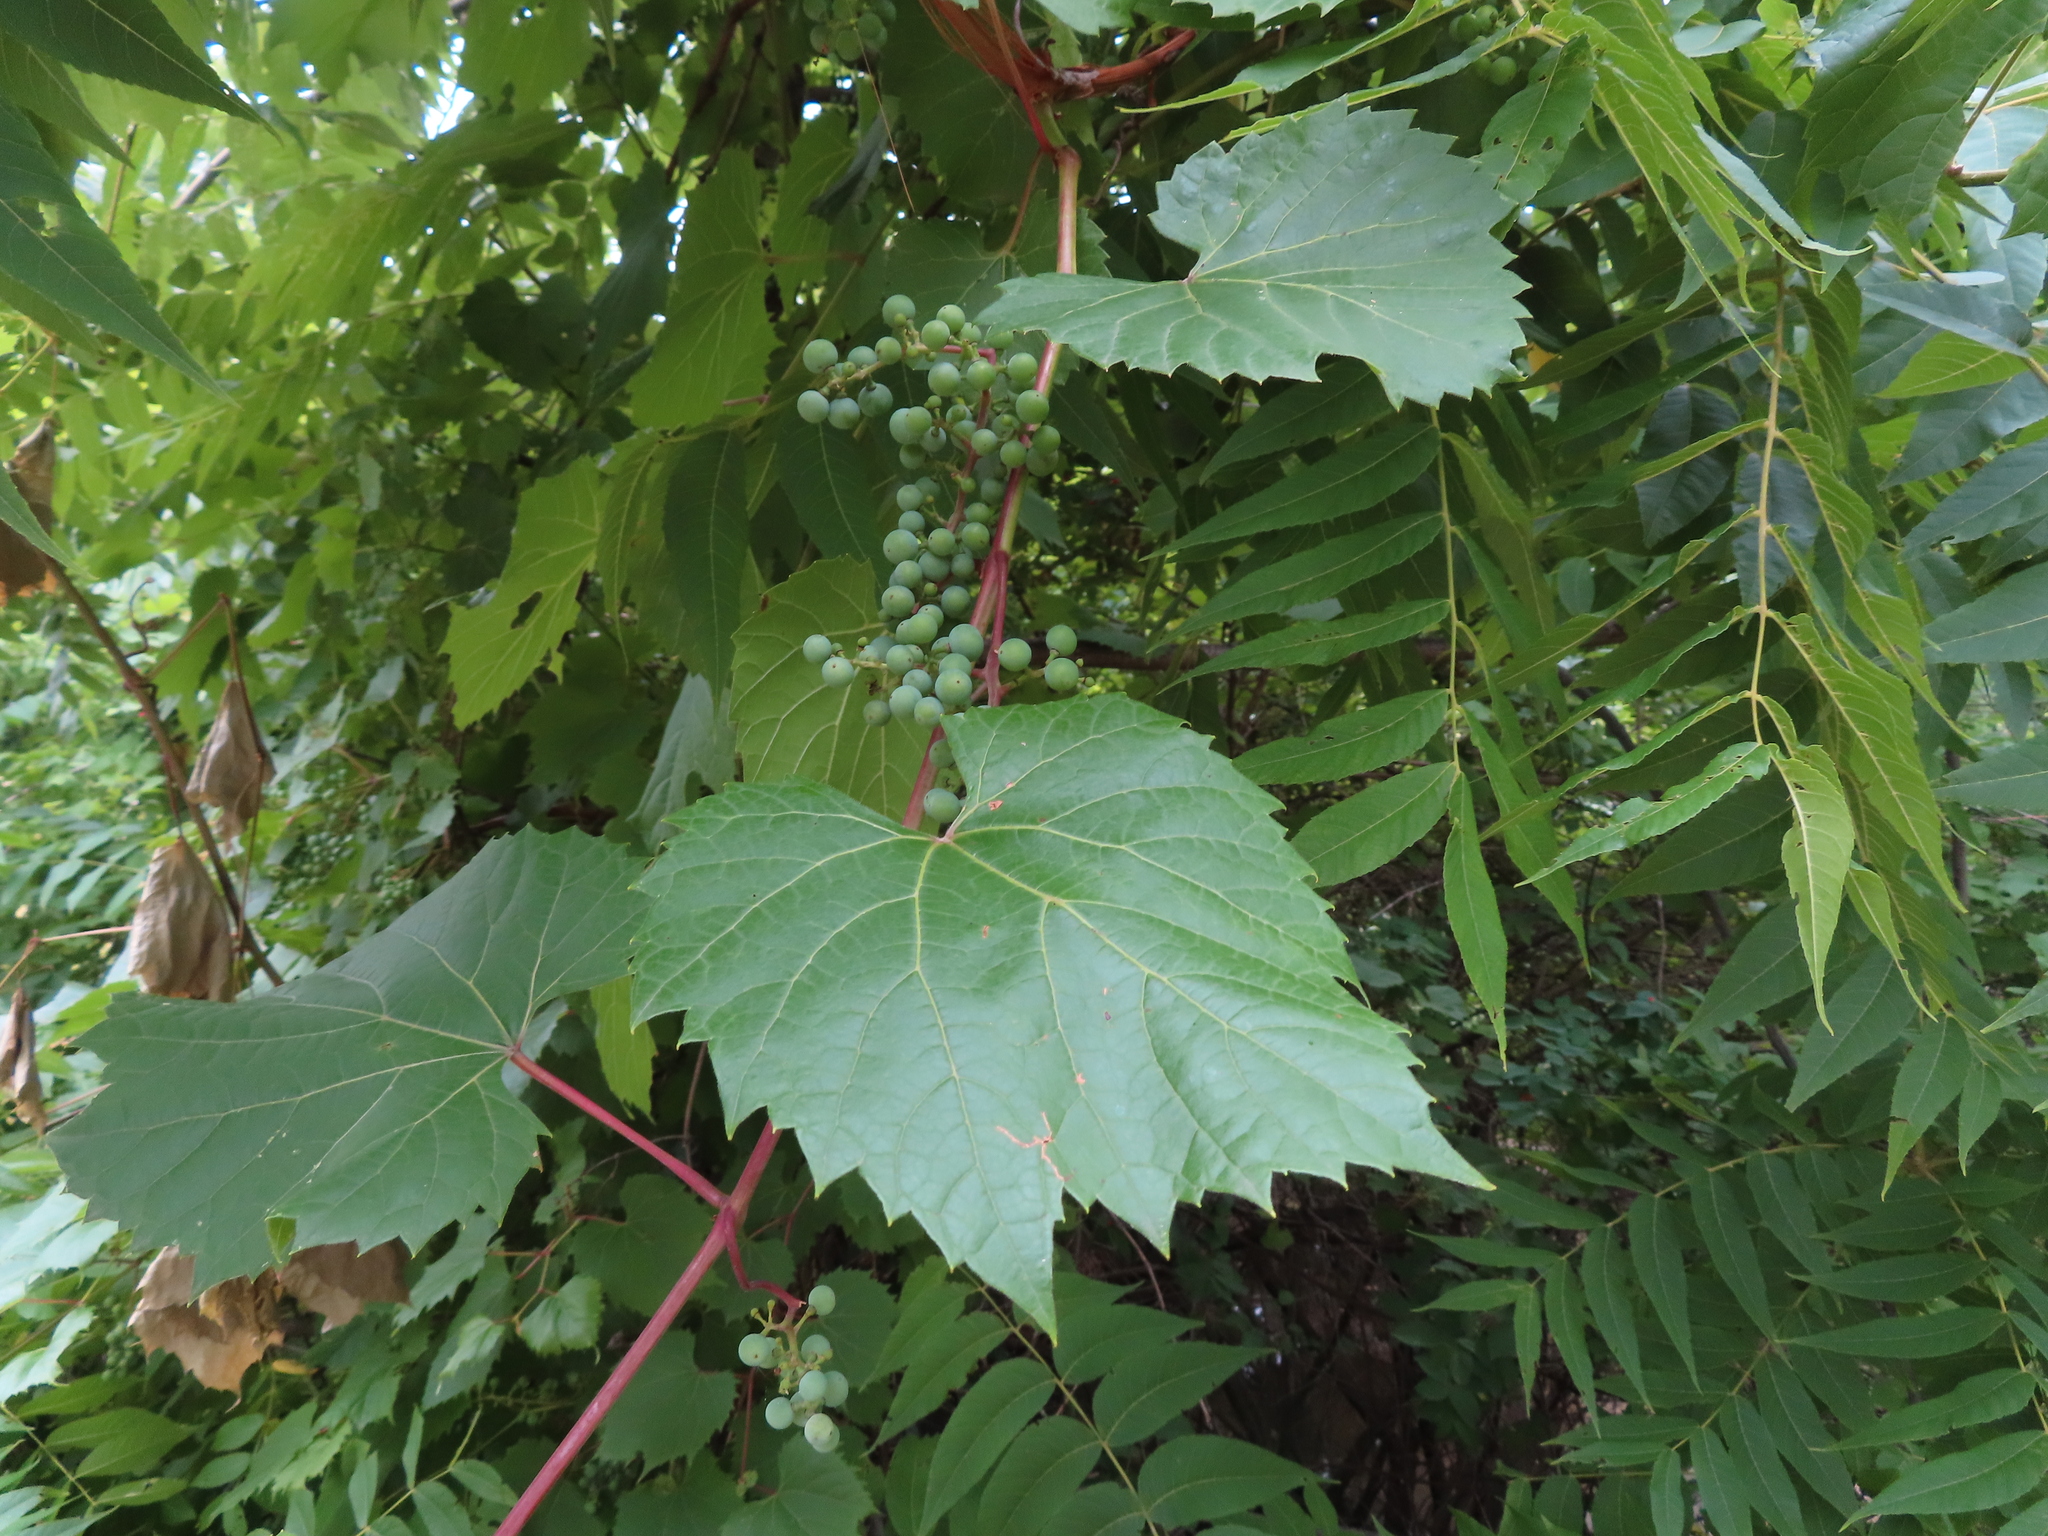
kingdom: Plantae
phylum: Tracheophyta
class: Magnoliopsida
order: Vitales
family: Vitaceae
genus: Vitis
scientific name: Vitis riparia
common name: Frost grape
